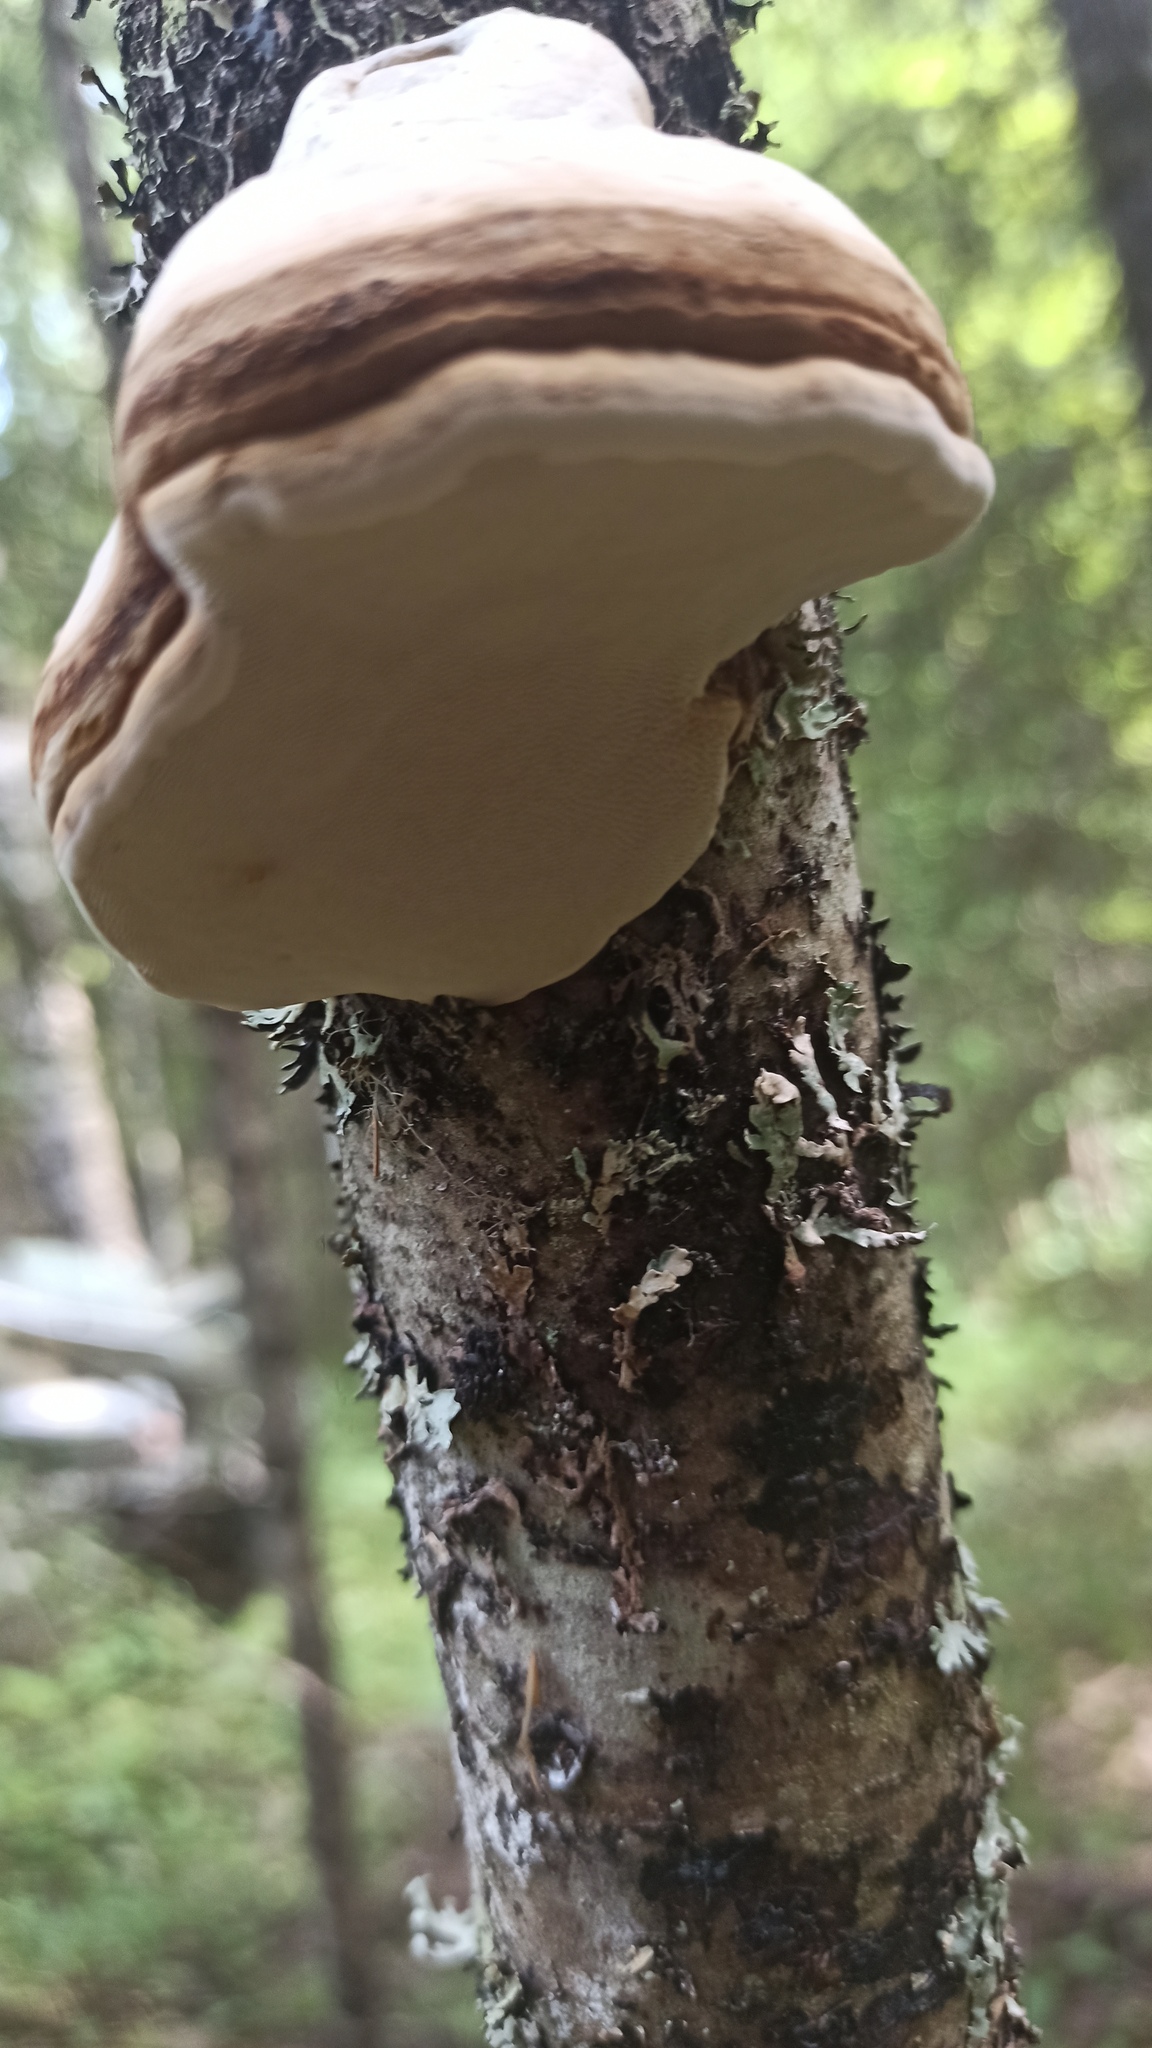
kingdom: Fungi
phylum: Basidiomycota
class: Agaricomycetes
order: Polyporales
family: Polyporaceae
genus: Fomes
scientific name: Fomes fomentarius
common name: Hoof fungus
